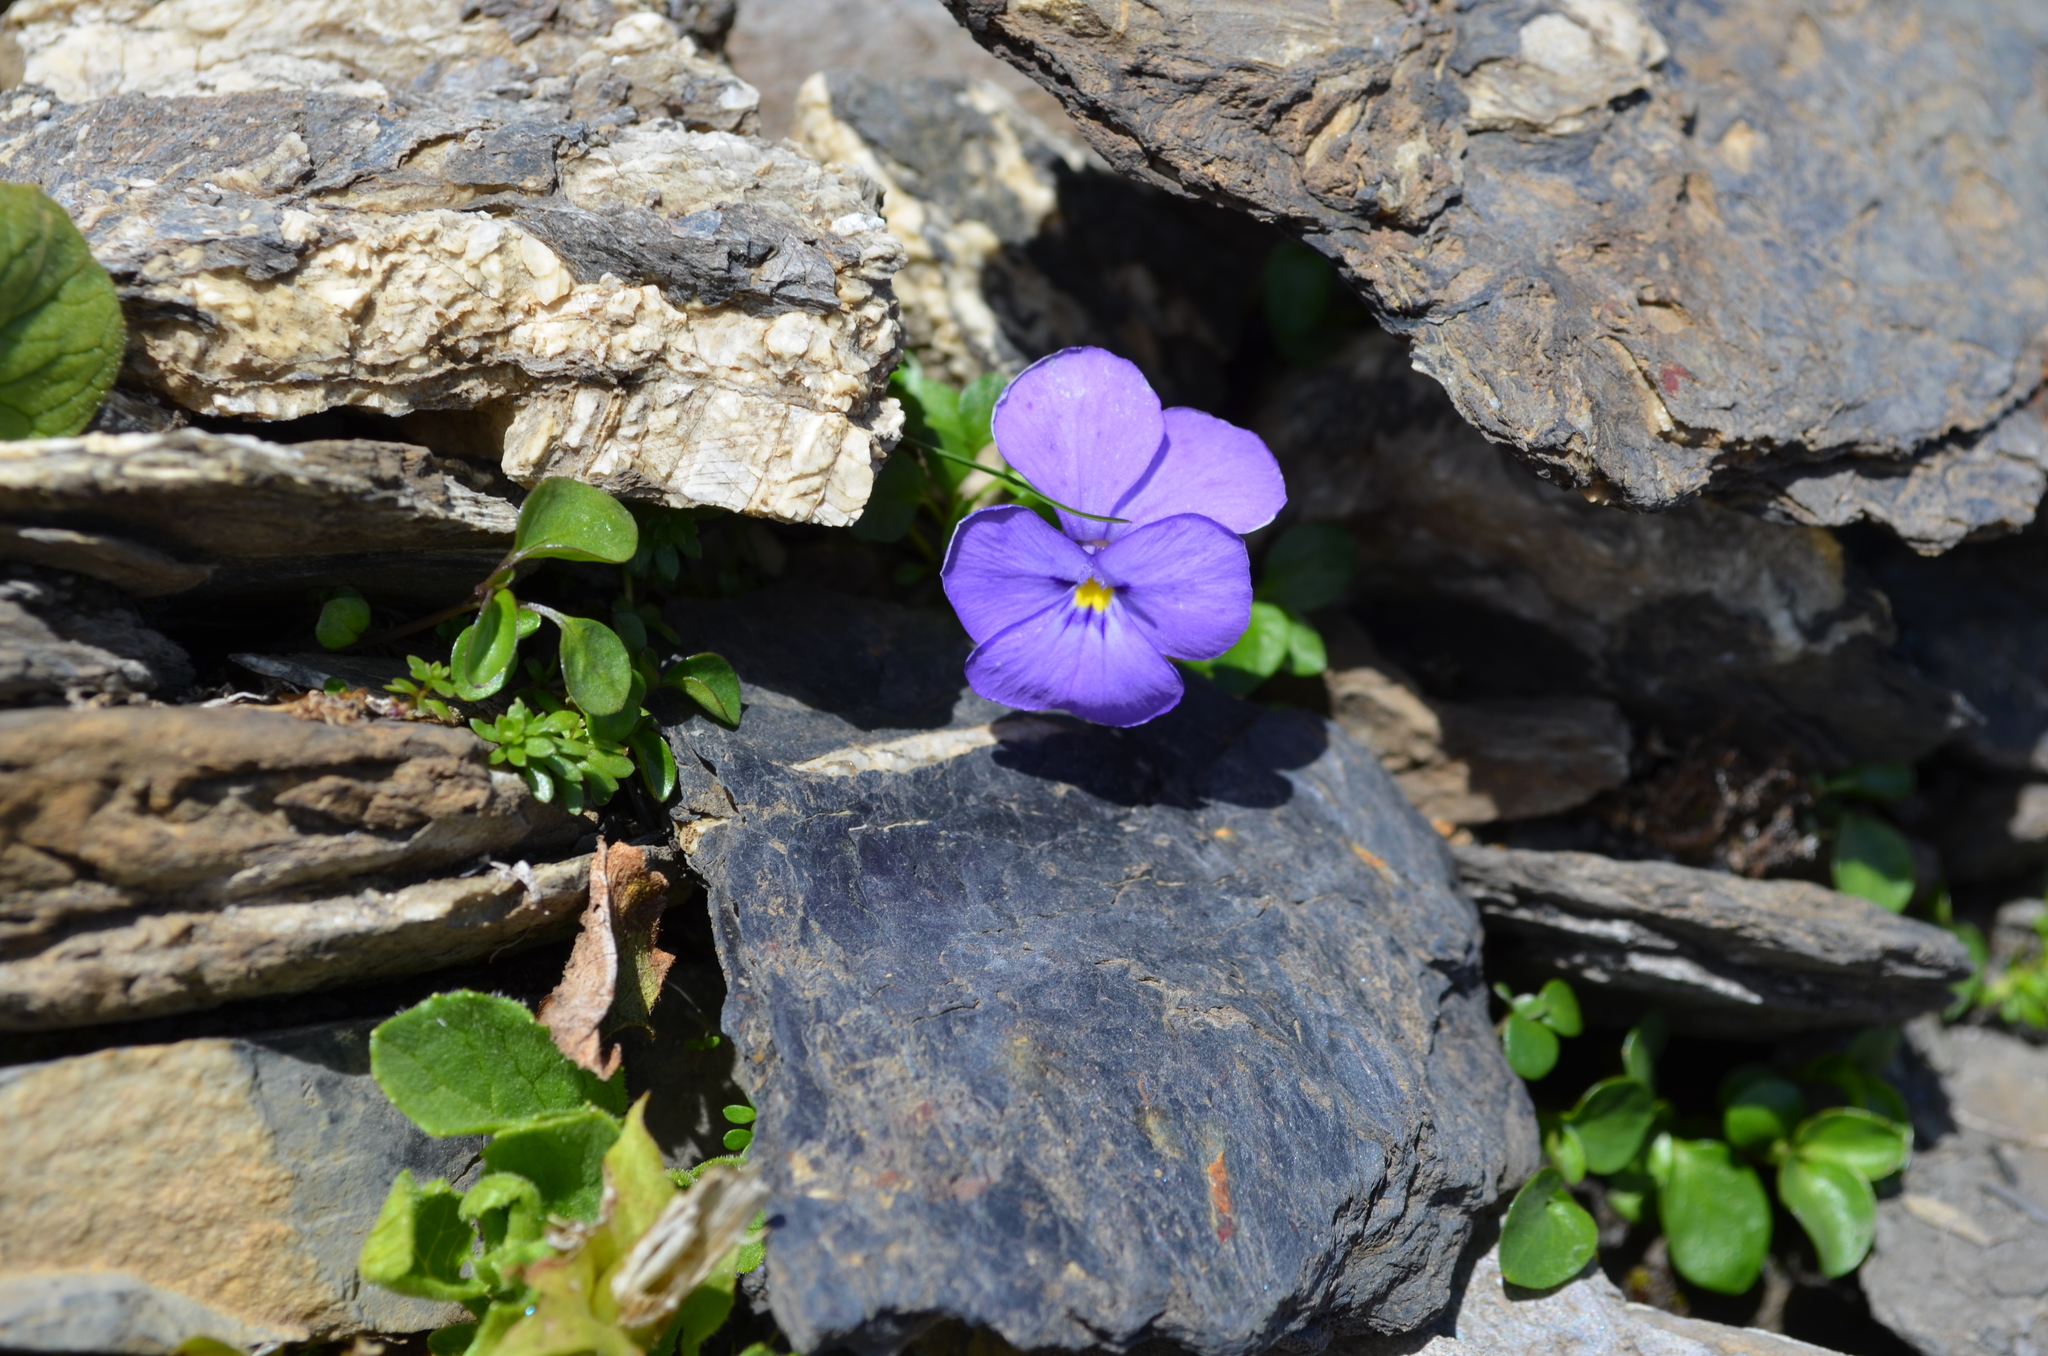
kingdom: Plantae
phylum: Tracheophyta
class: Magnoliopsida
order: Malpighiales
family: Violaceae
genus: Viola
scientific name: Viola cenisia
